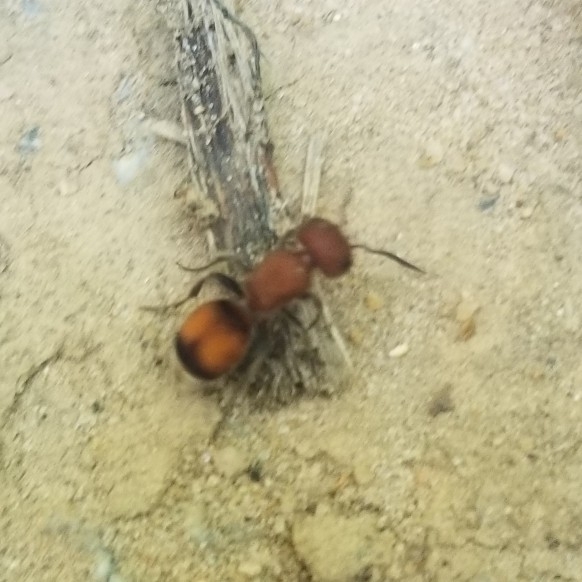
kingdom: Animalia
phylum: Arthropoda
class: Insecta
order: Hymenoptera
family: Mutillidae
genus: Pseudomethoca
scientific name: Pseudomethoca
